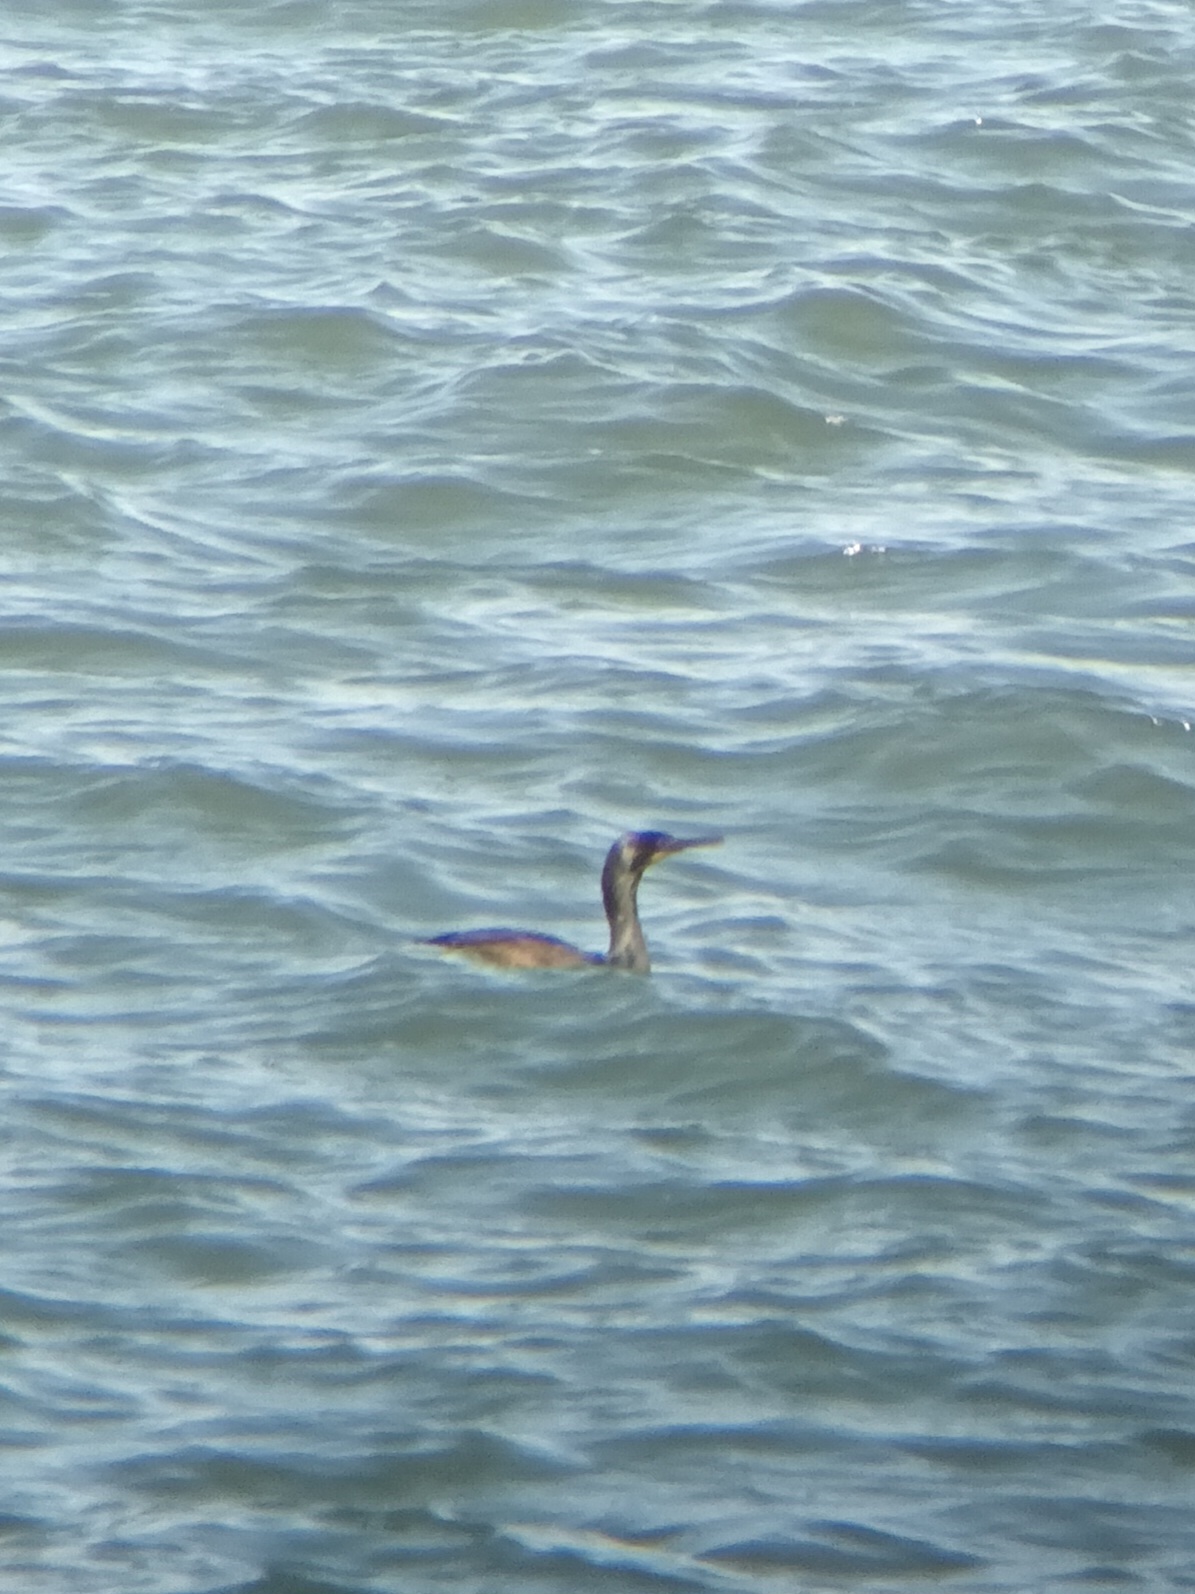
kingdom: Animalia
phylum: Chordata
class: Aves
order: Suliformes
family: Phalacrocoracidae
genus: Urile
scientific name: Urile penicillatus
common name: Brandt's cormorant
